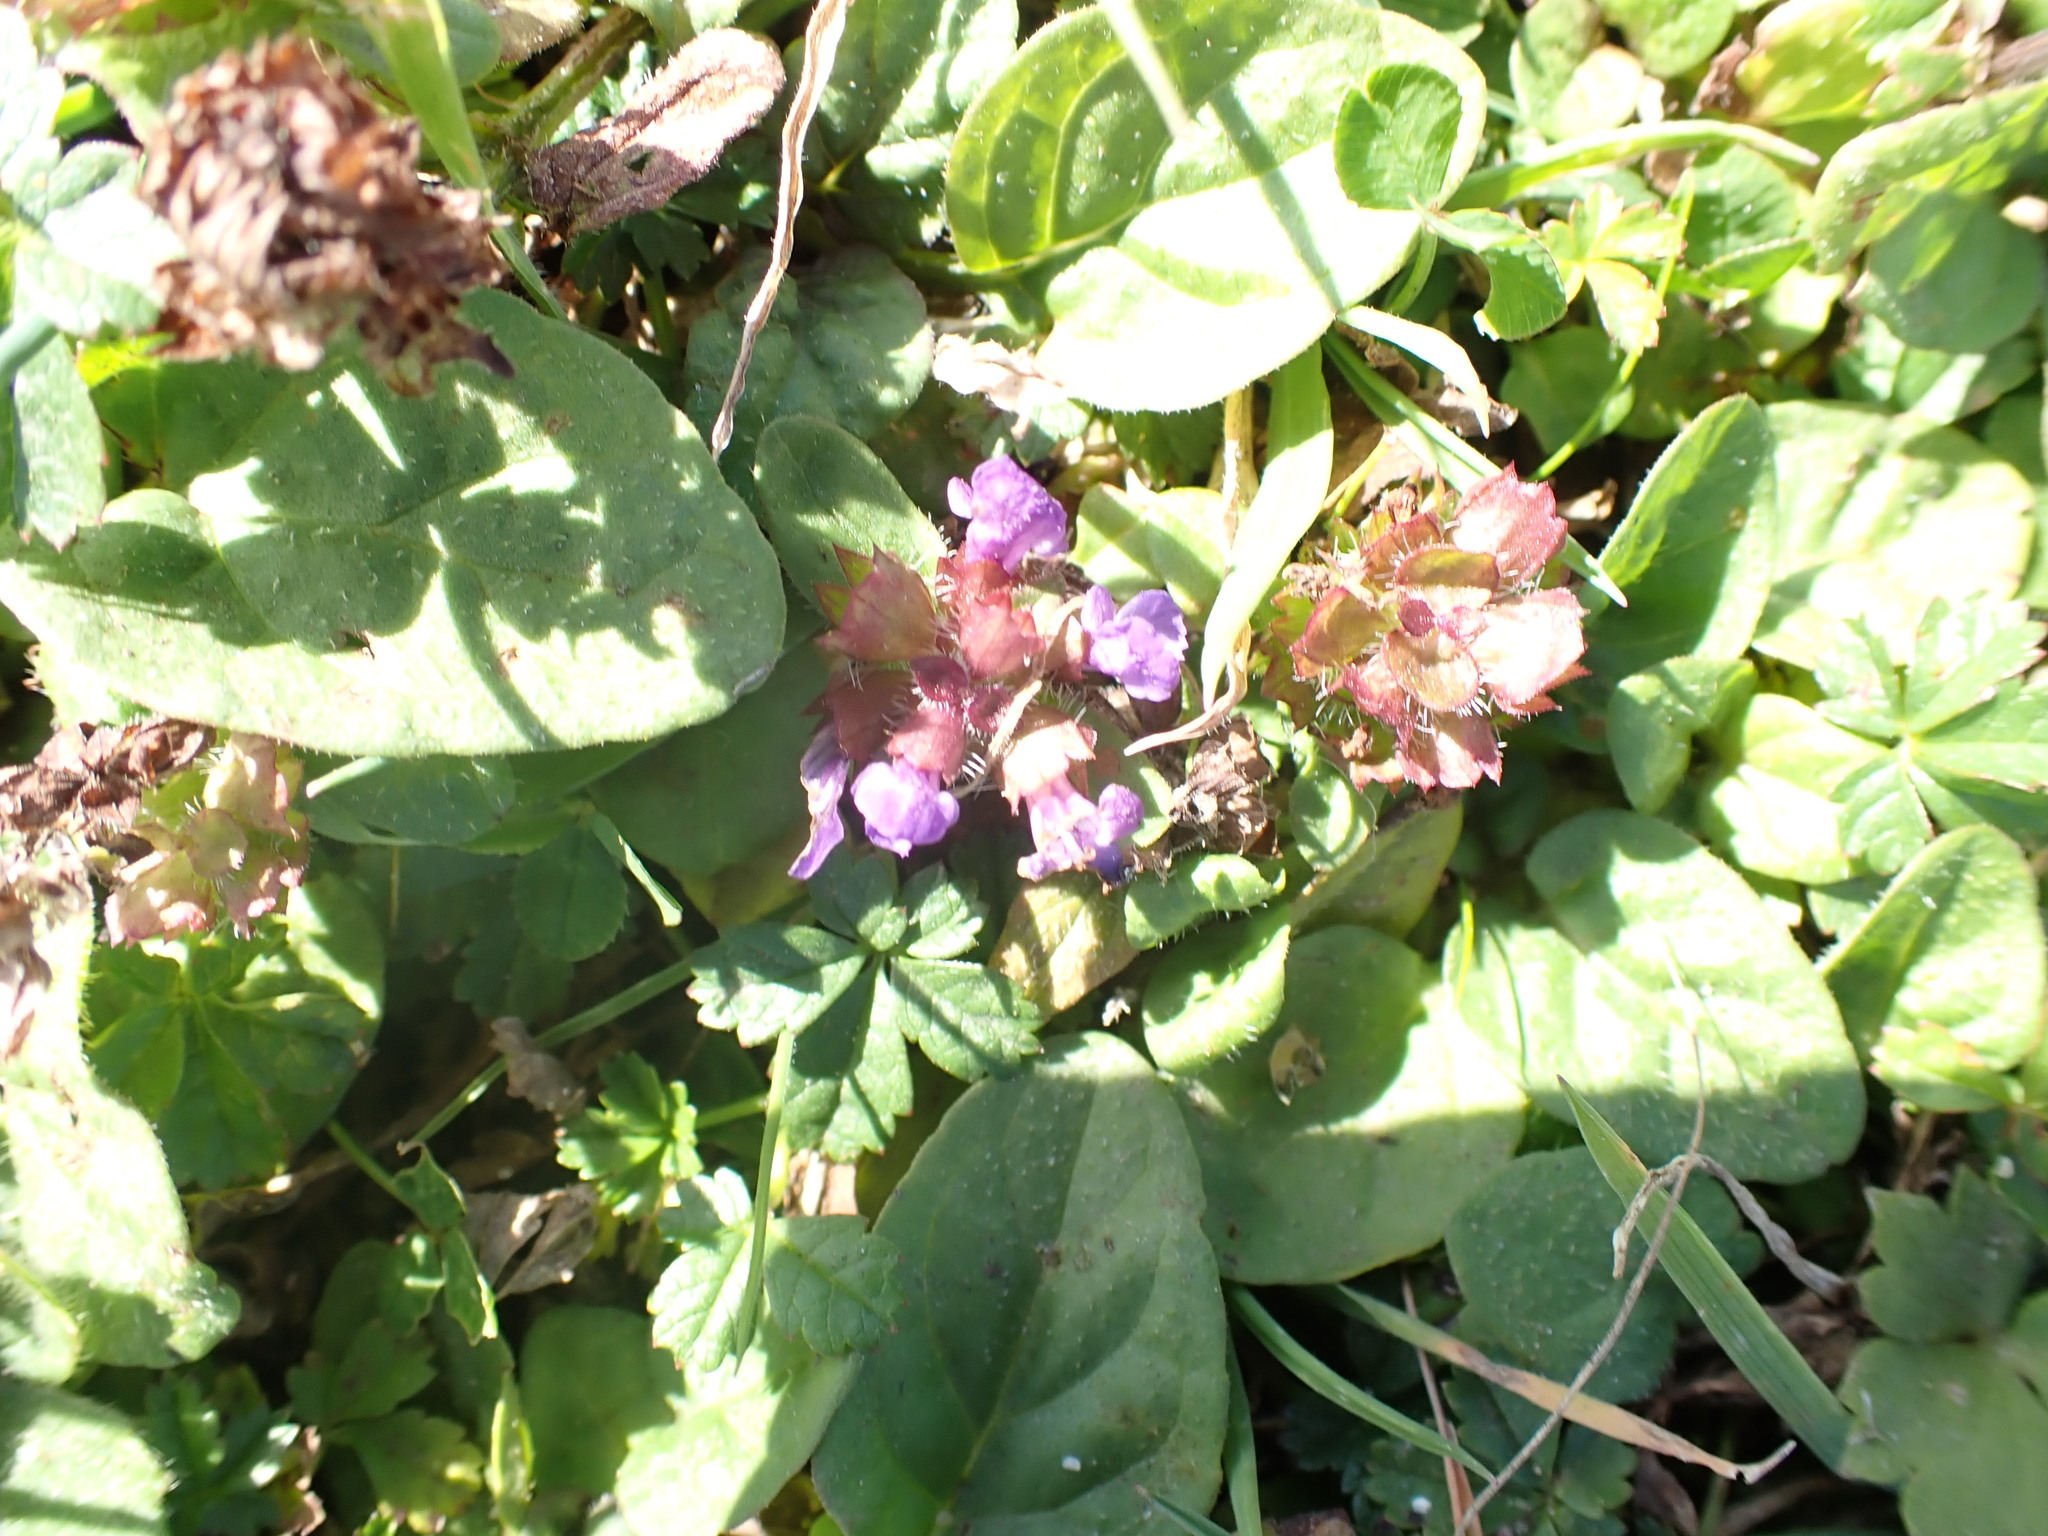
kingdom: Plantae
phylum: Tracheophyta
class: Magnoliopsida
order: Lamiales
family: Lamiaceae
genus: Prunella
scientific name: Prunella vulgaris
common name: Heal-all
